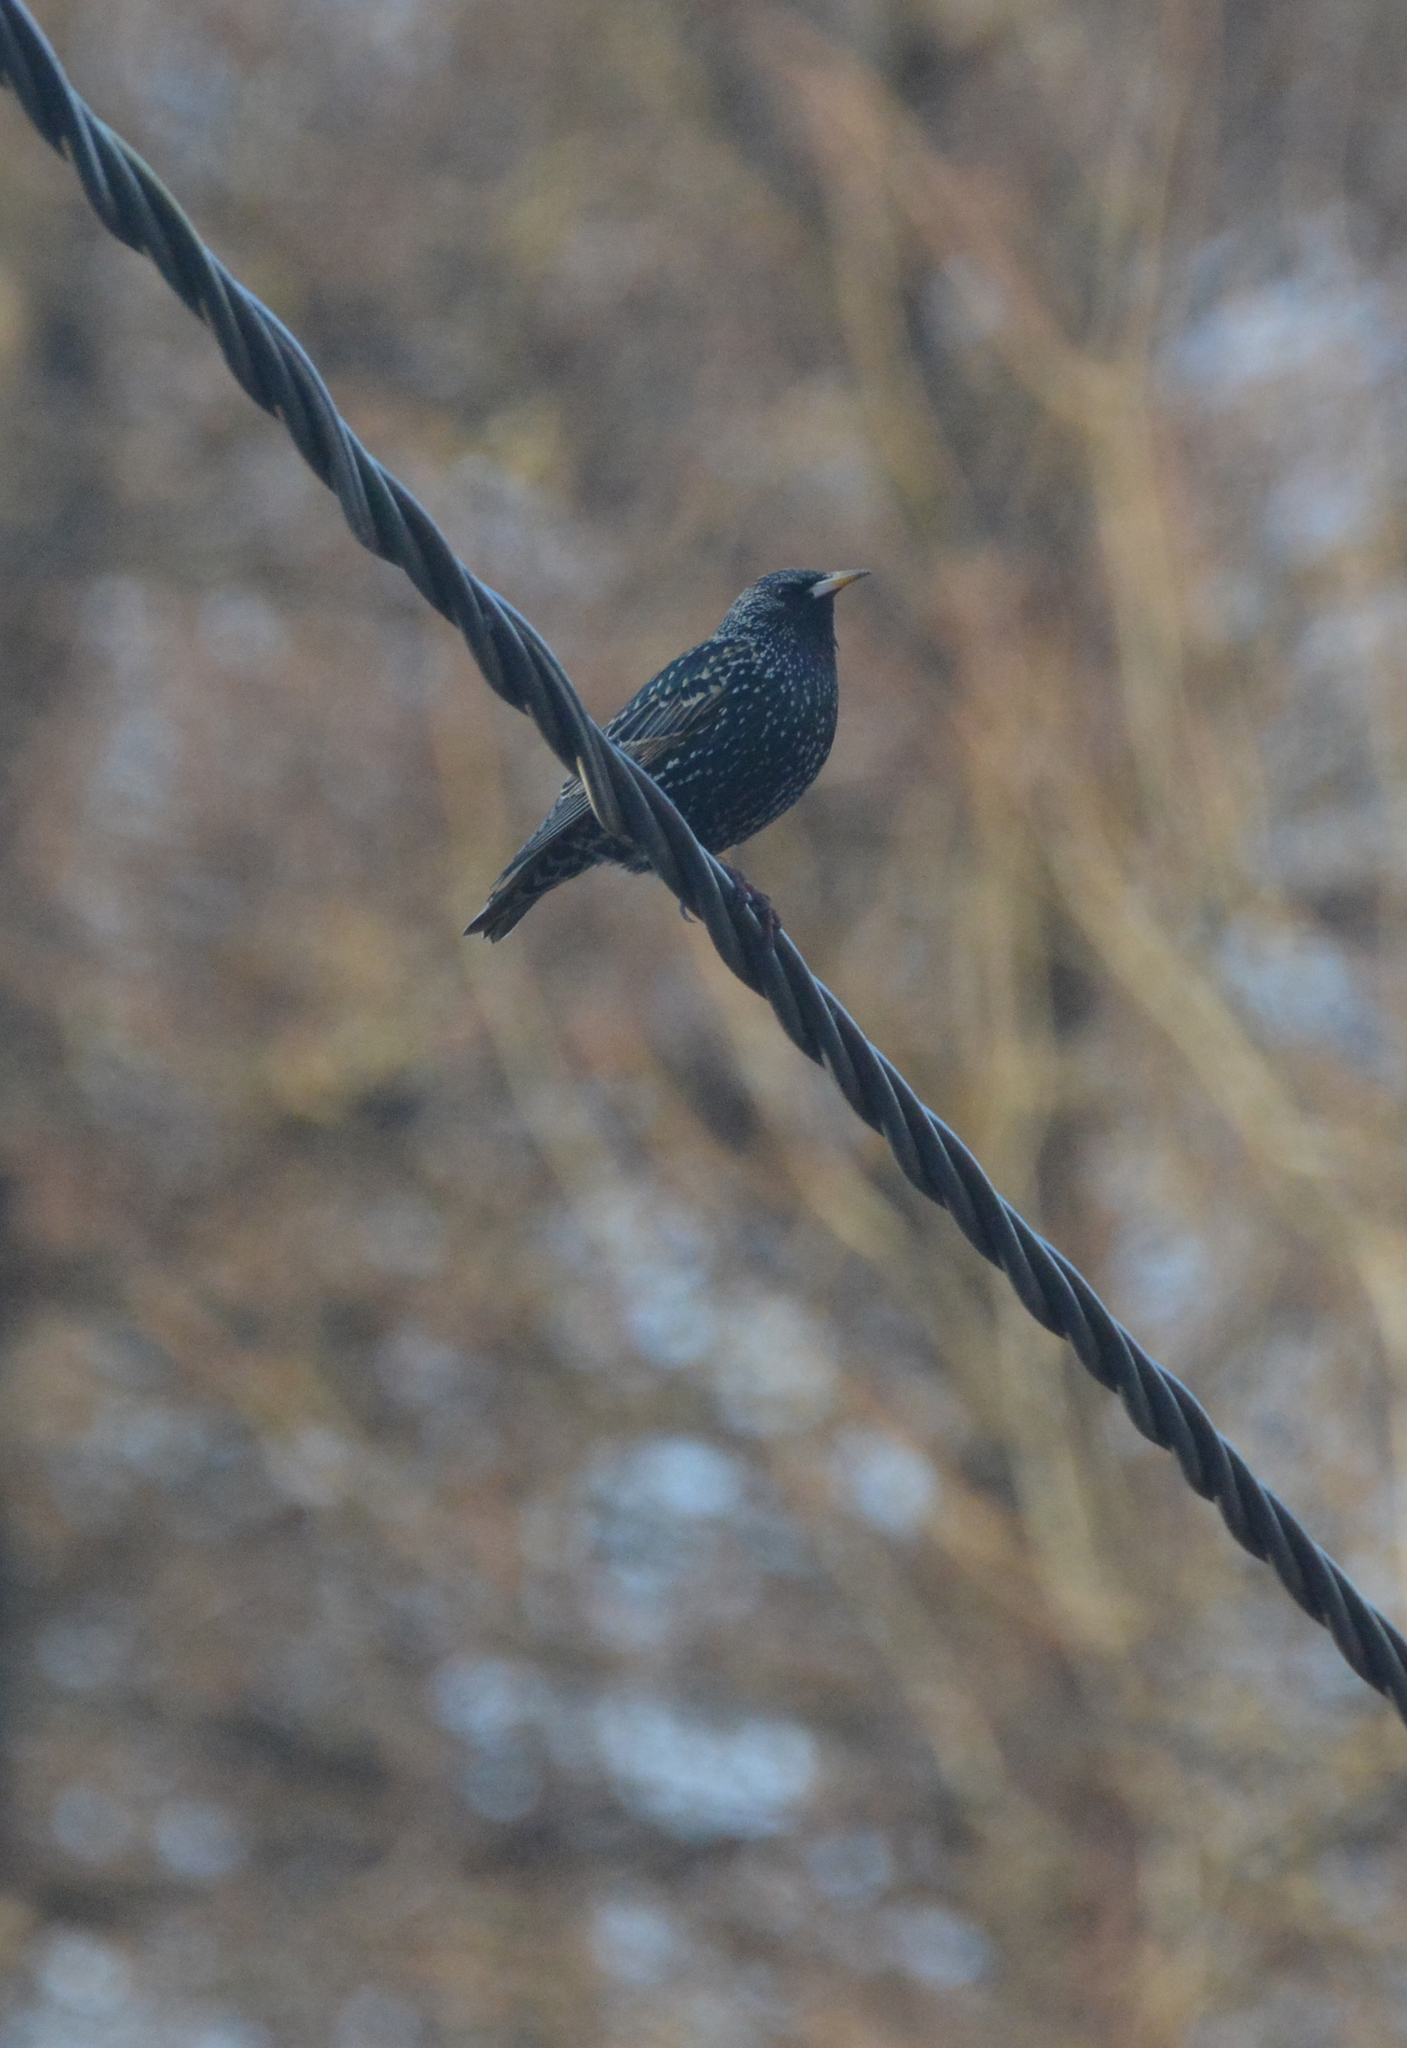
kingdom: Animalia
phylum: Chordata
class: Aves
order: Passeriformes
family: Sturnidae
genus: Sturnus
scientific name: Sturnus vulgaris
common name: Common starling
